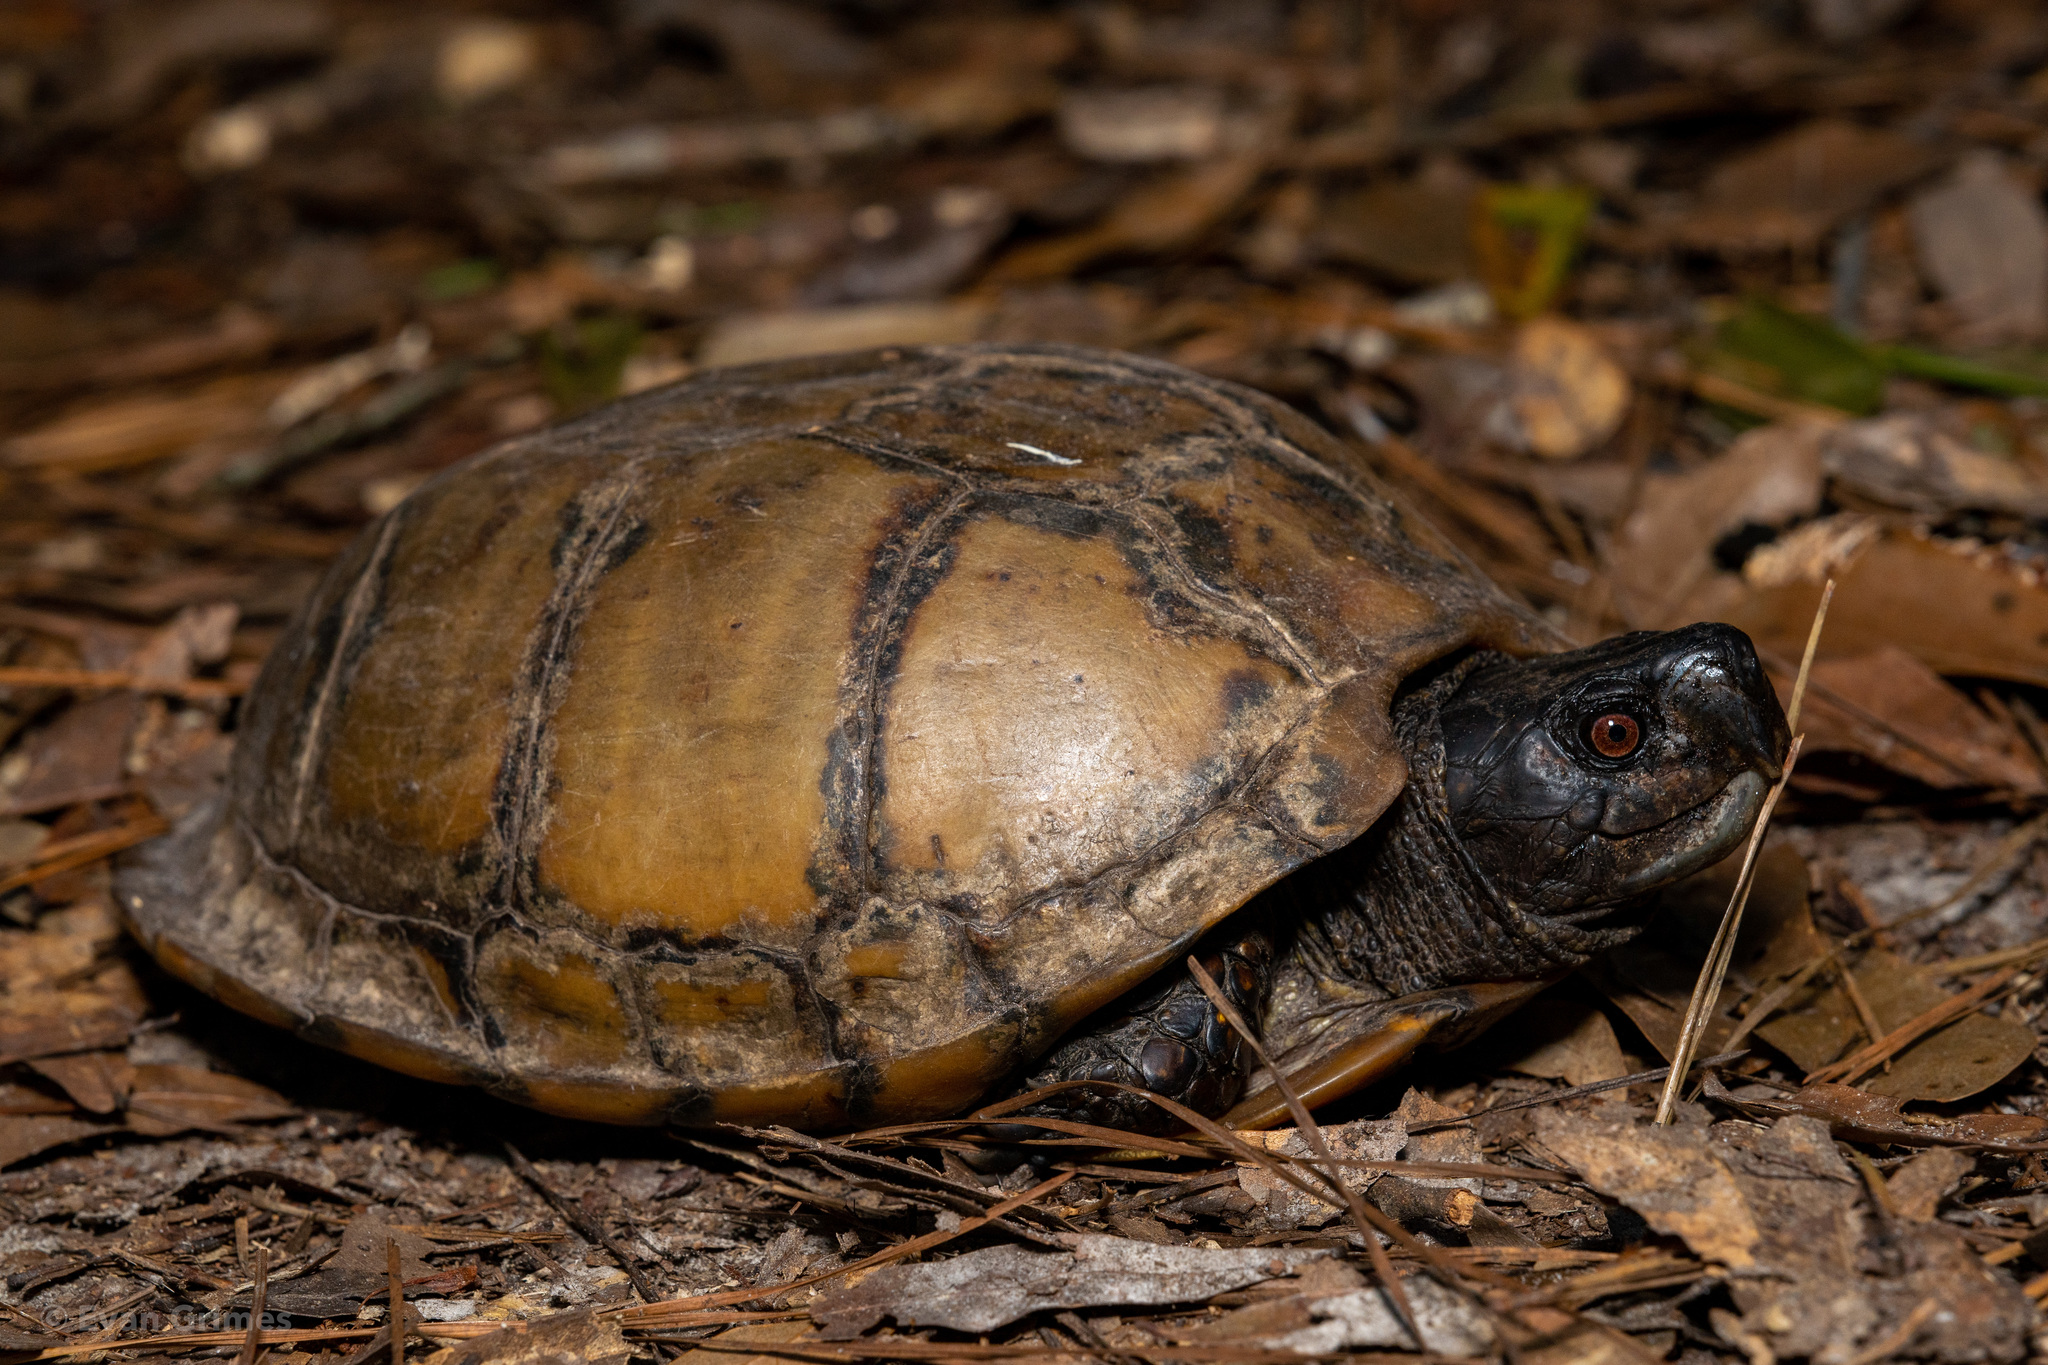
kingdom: Animalia
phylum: Chordata
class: Testudines
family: Emydidae
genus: Terrapene
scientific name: Terrapene carolina
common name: Common box turtle
